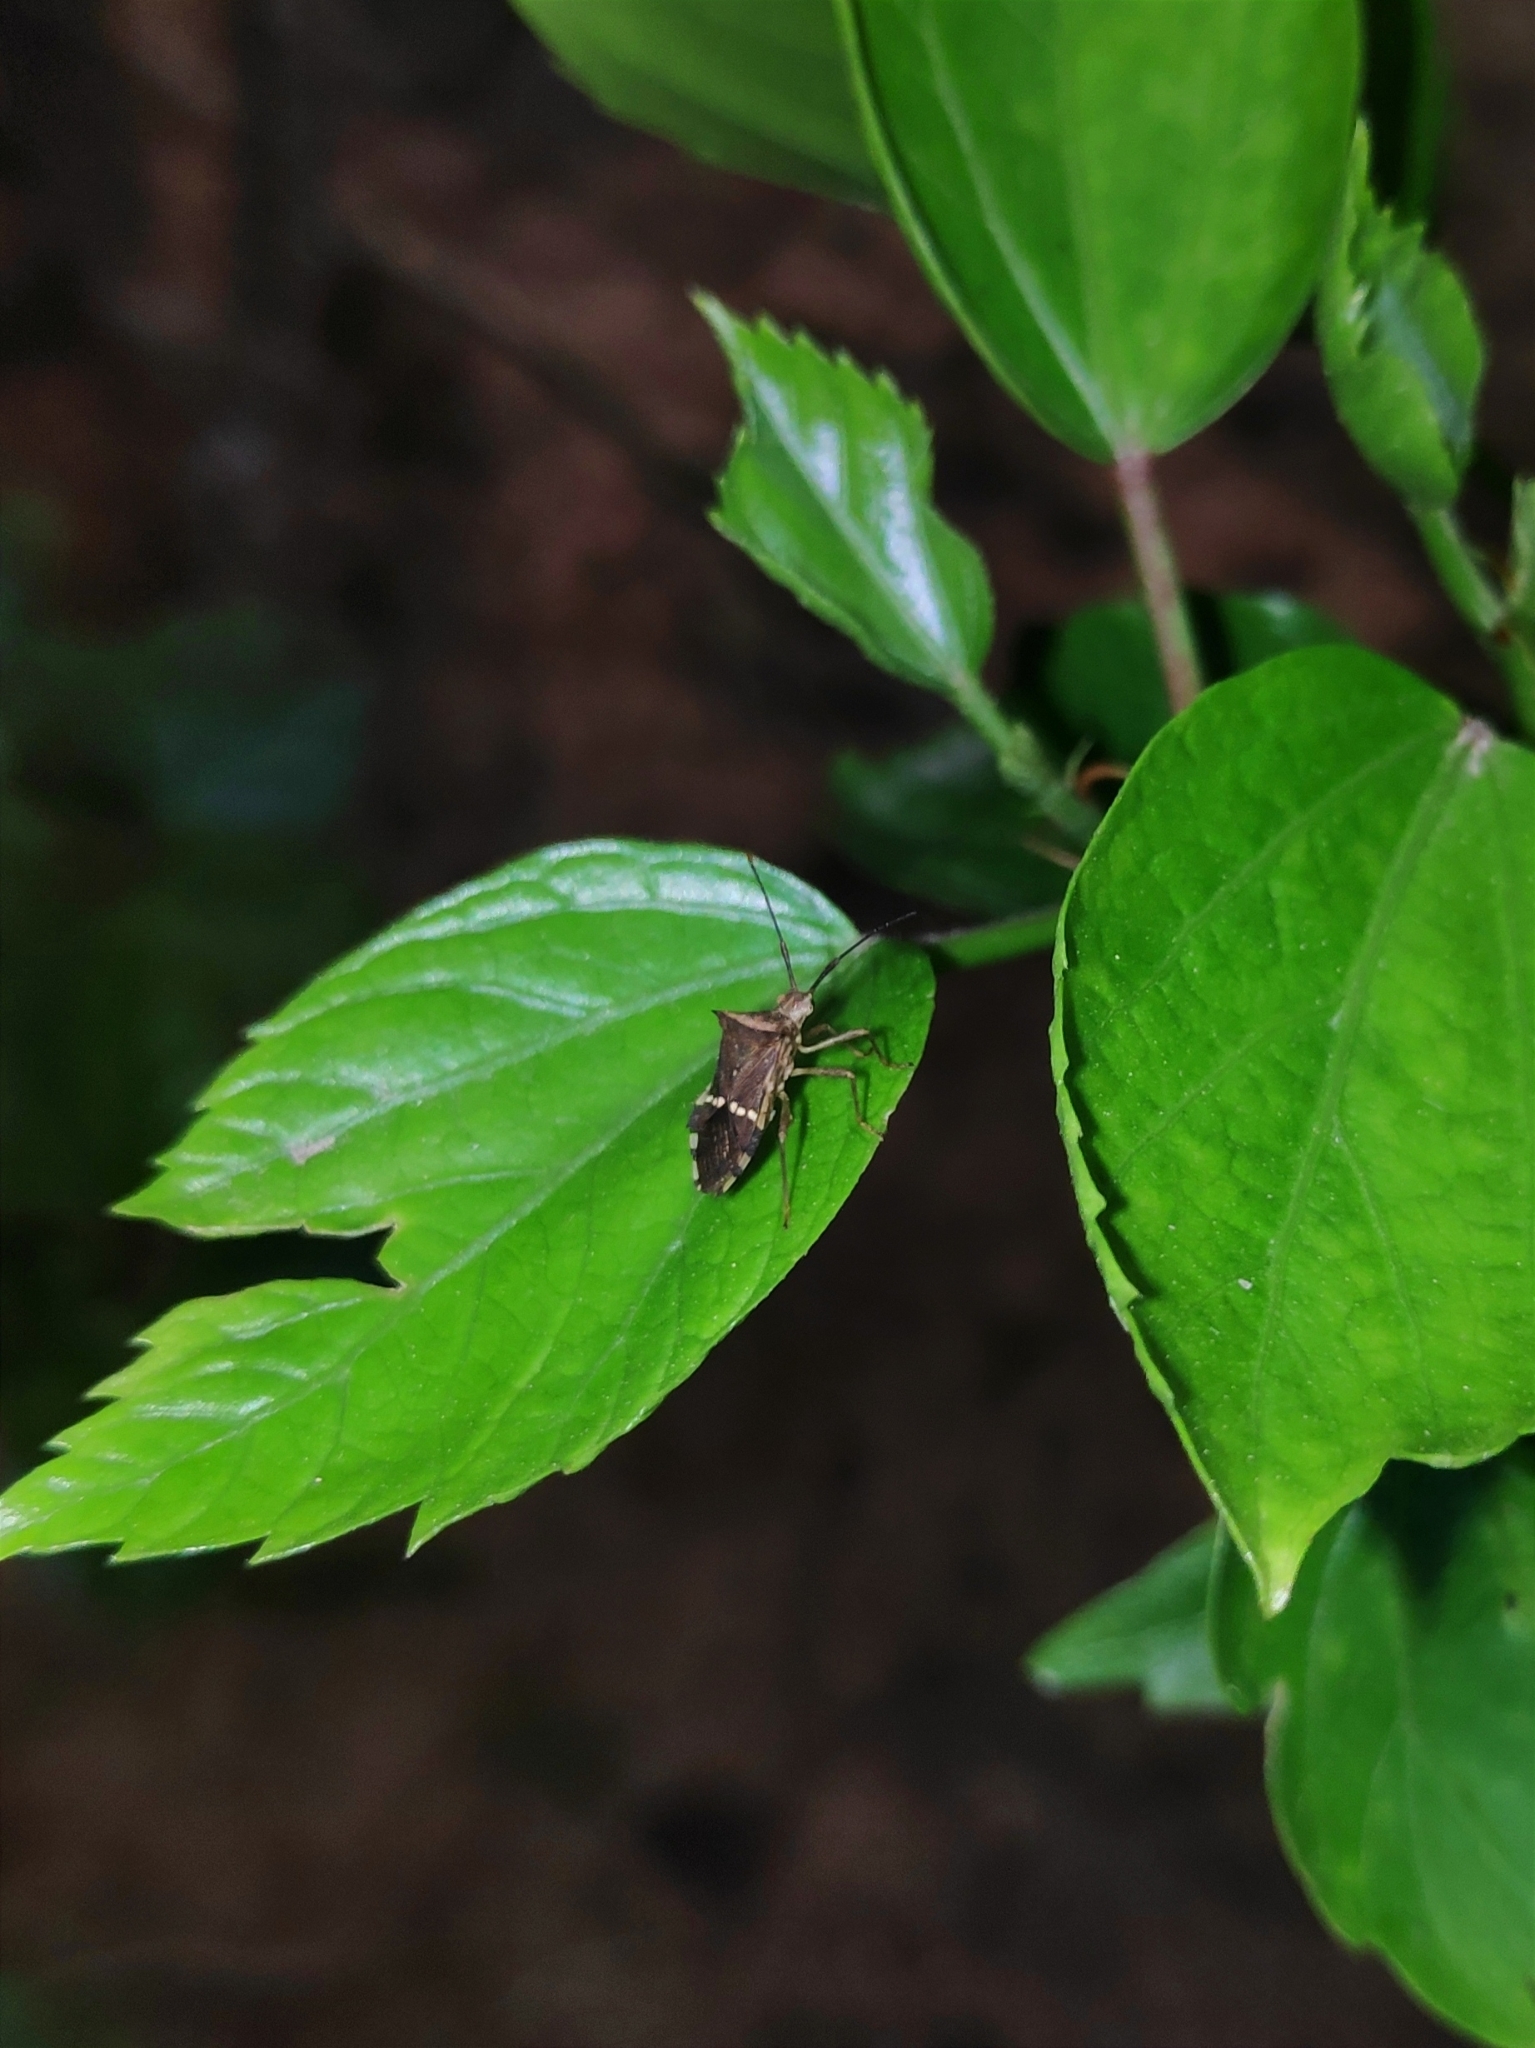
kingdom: Animalia
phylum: Arthropoda
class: Insecta
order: Hemiptera
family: Coreidae
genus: Cletomorpha
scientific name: Cletomorpha benita
